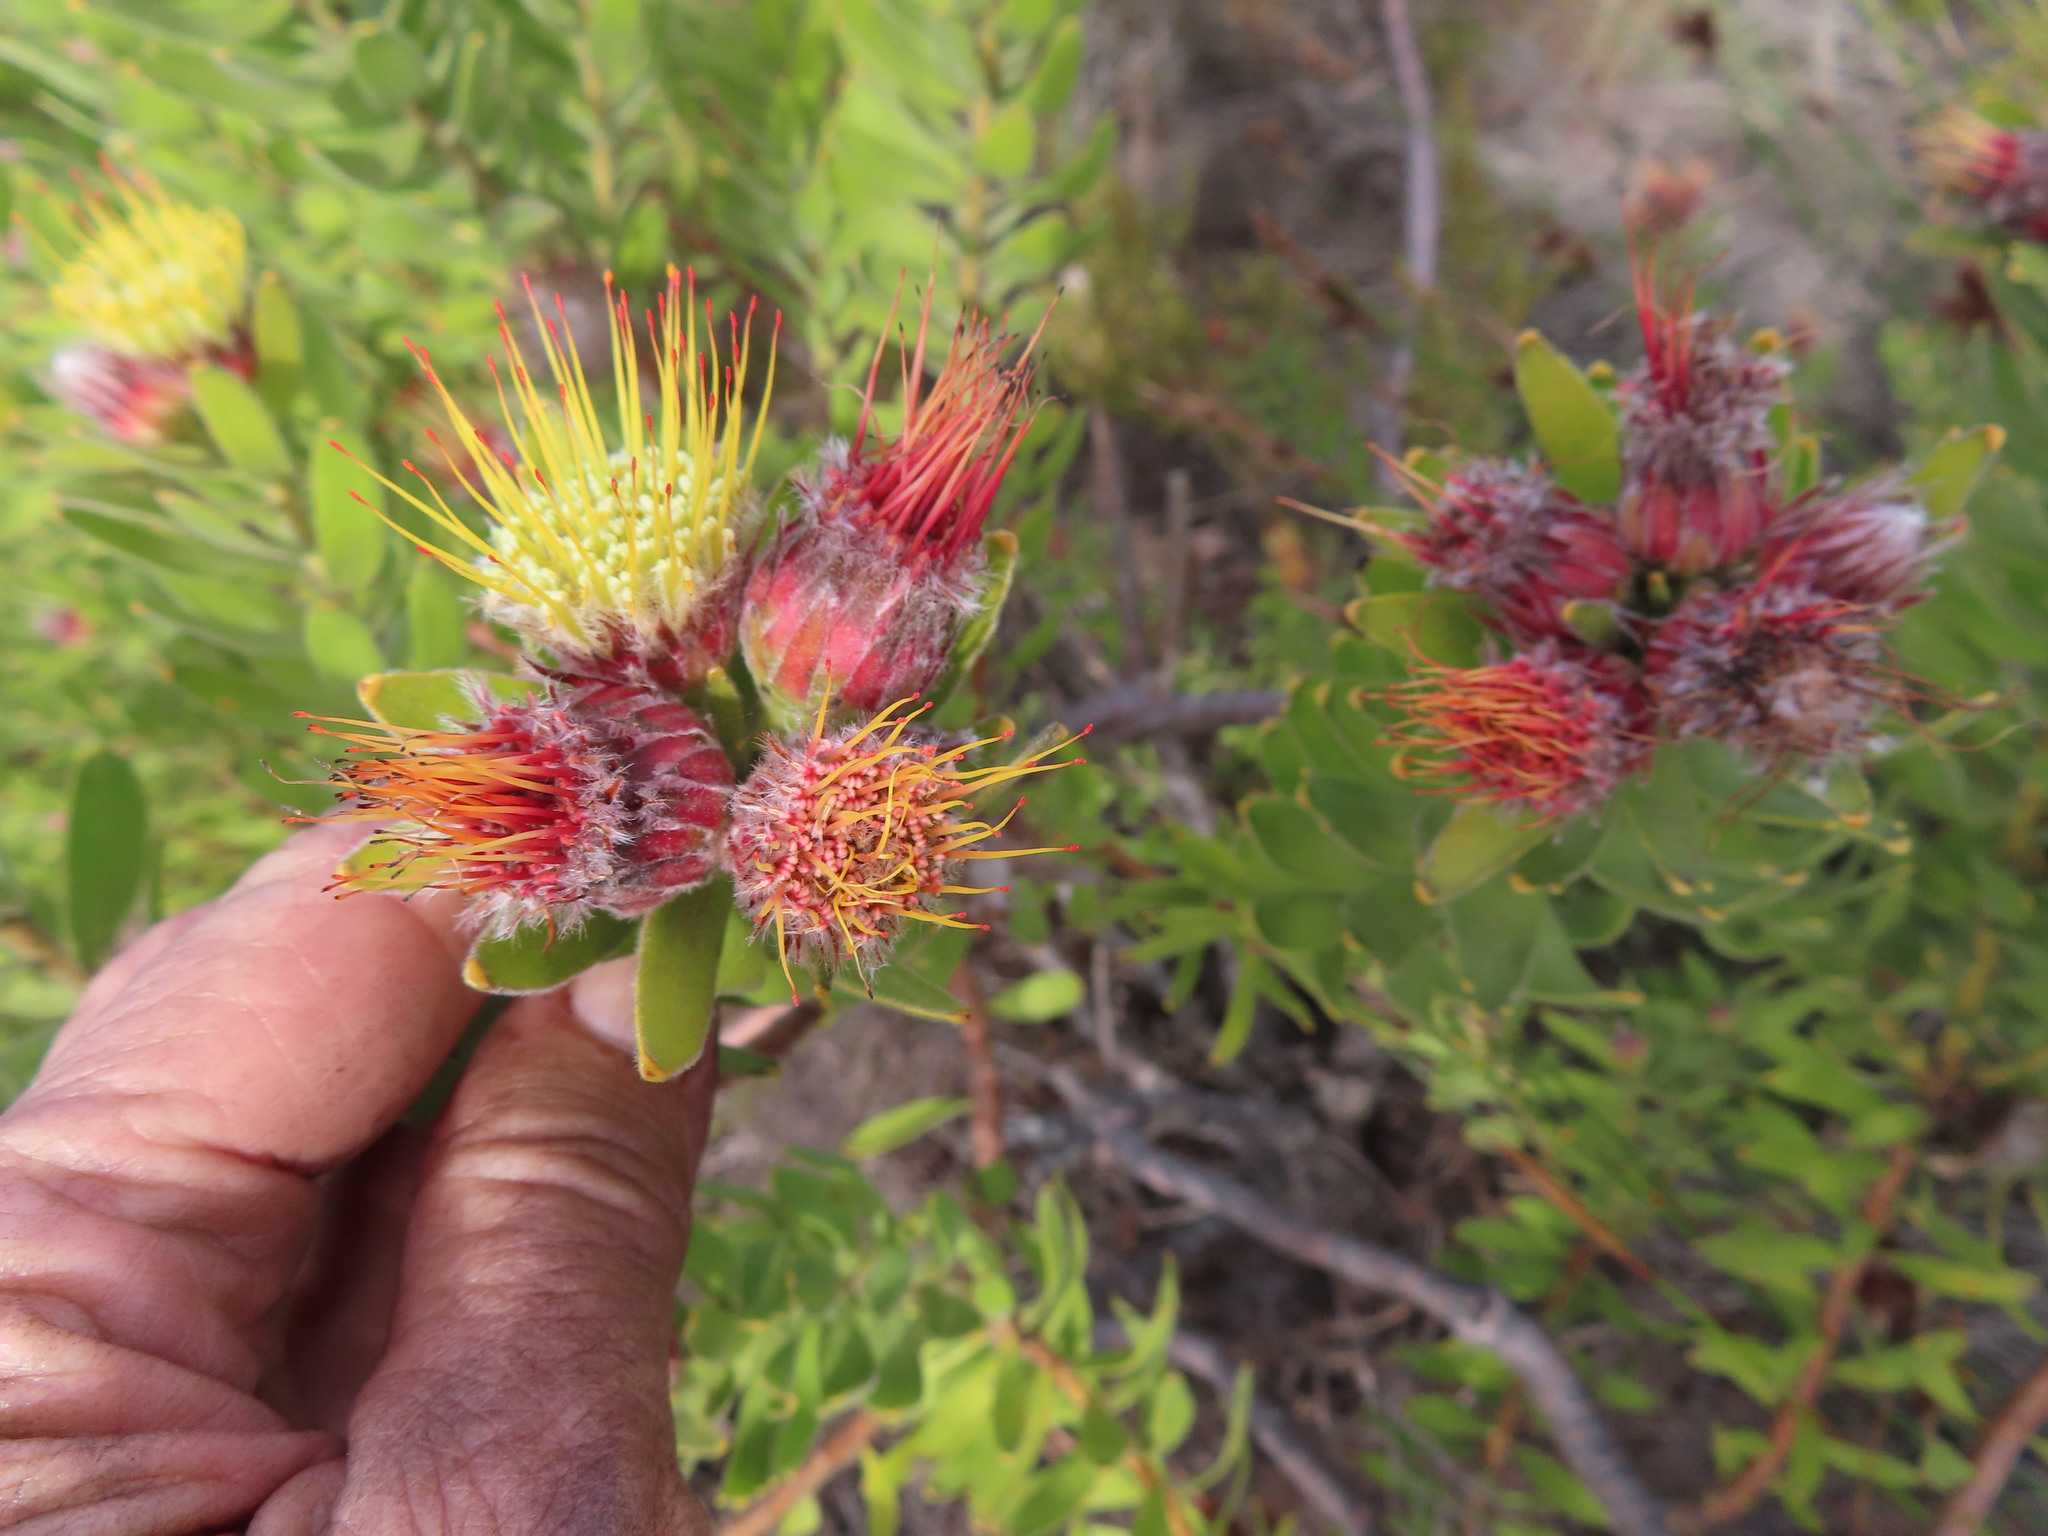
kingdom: Plantae
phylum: Tracheophyta
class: Magnoliopsida
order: Proteales
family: Proteaceae
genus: Leucospermum
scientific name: Leucospermum oleifolium
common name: Matches
